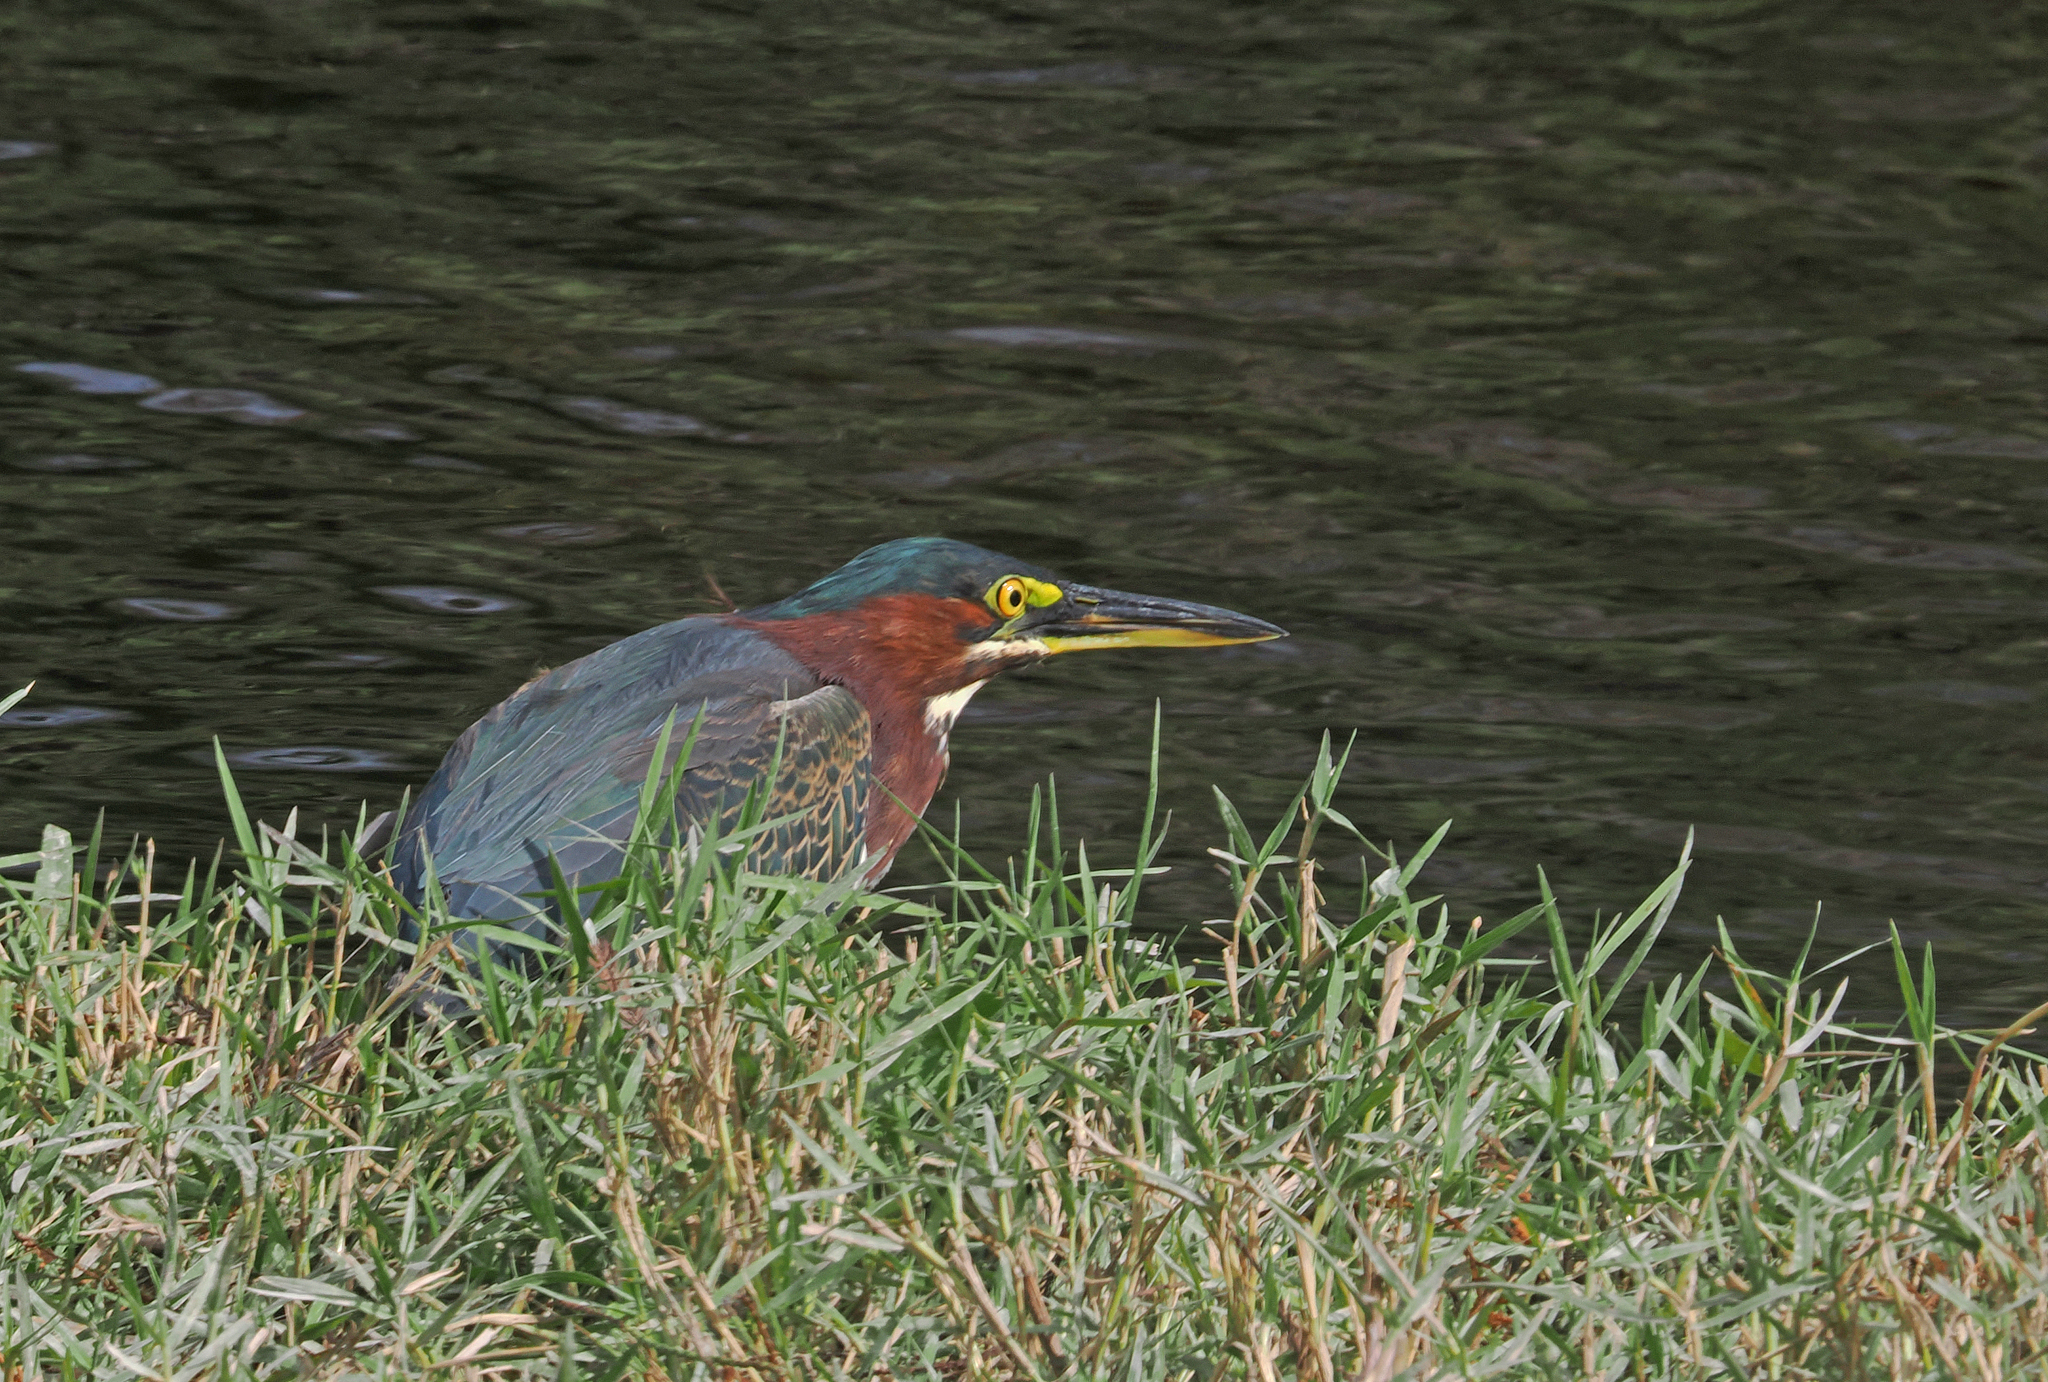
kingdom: Animalia
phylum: Chordata
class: Aves
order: Pelecaniformes
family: Ardeidae
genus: Butorides
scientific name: Butorides virescens
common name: Green heron
